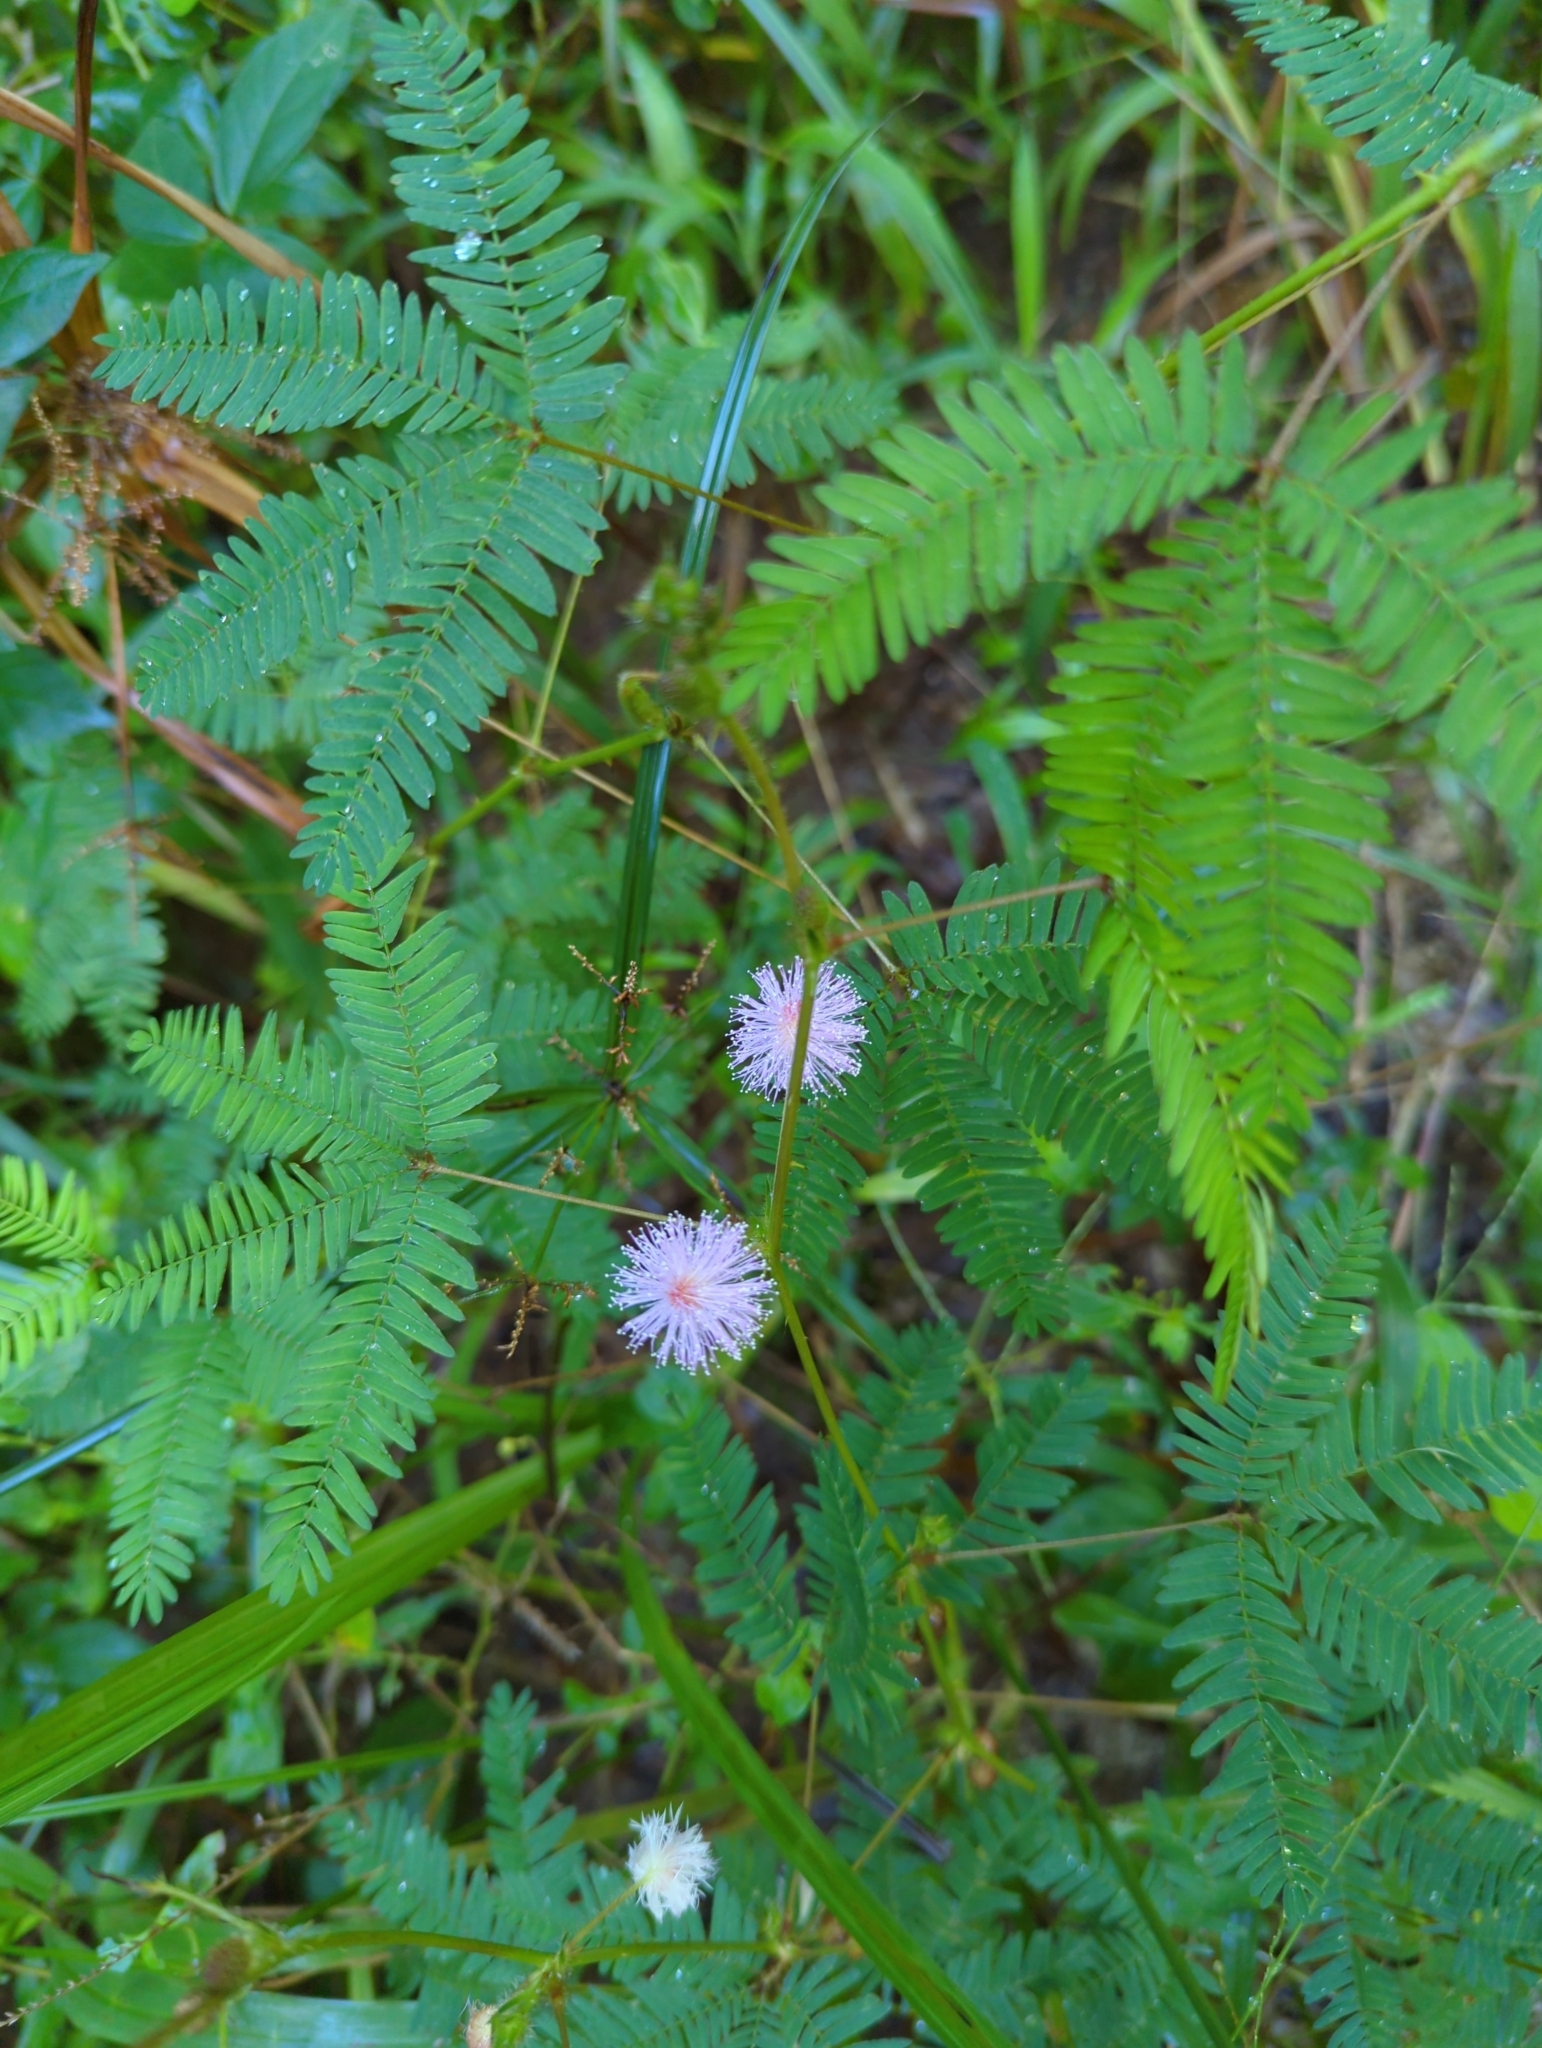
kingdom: Plantae
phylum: Tracheophyta
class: Magnoliopsida
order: Fabales
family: Fabaceae
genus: Mimosa
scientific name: Mimosa pudica
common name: Sensitive plant
